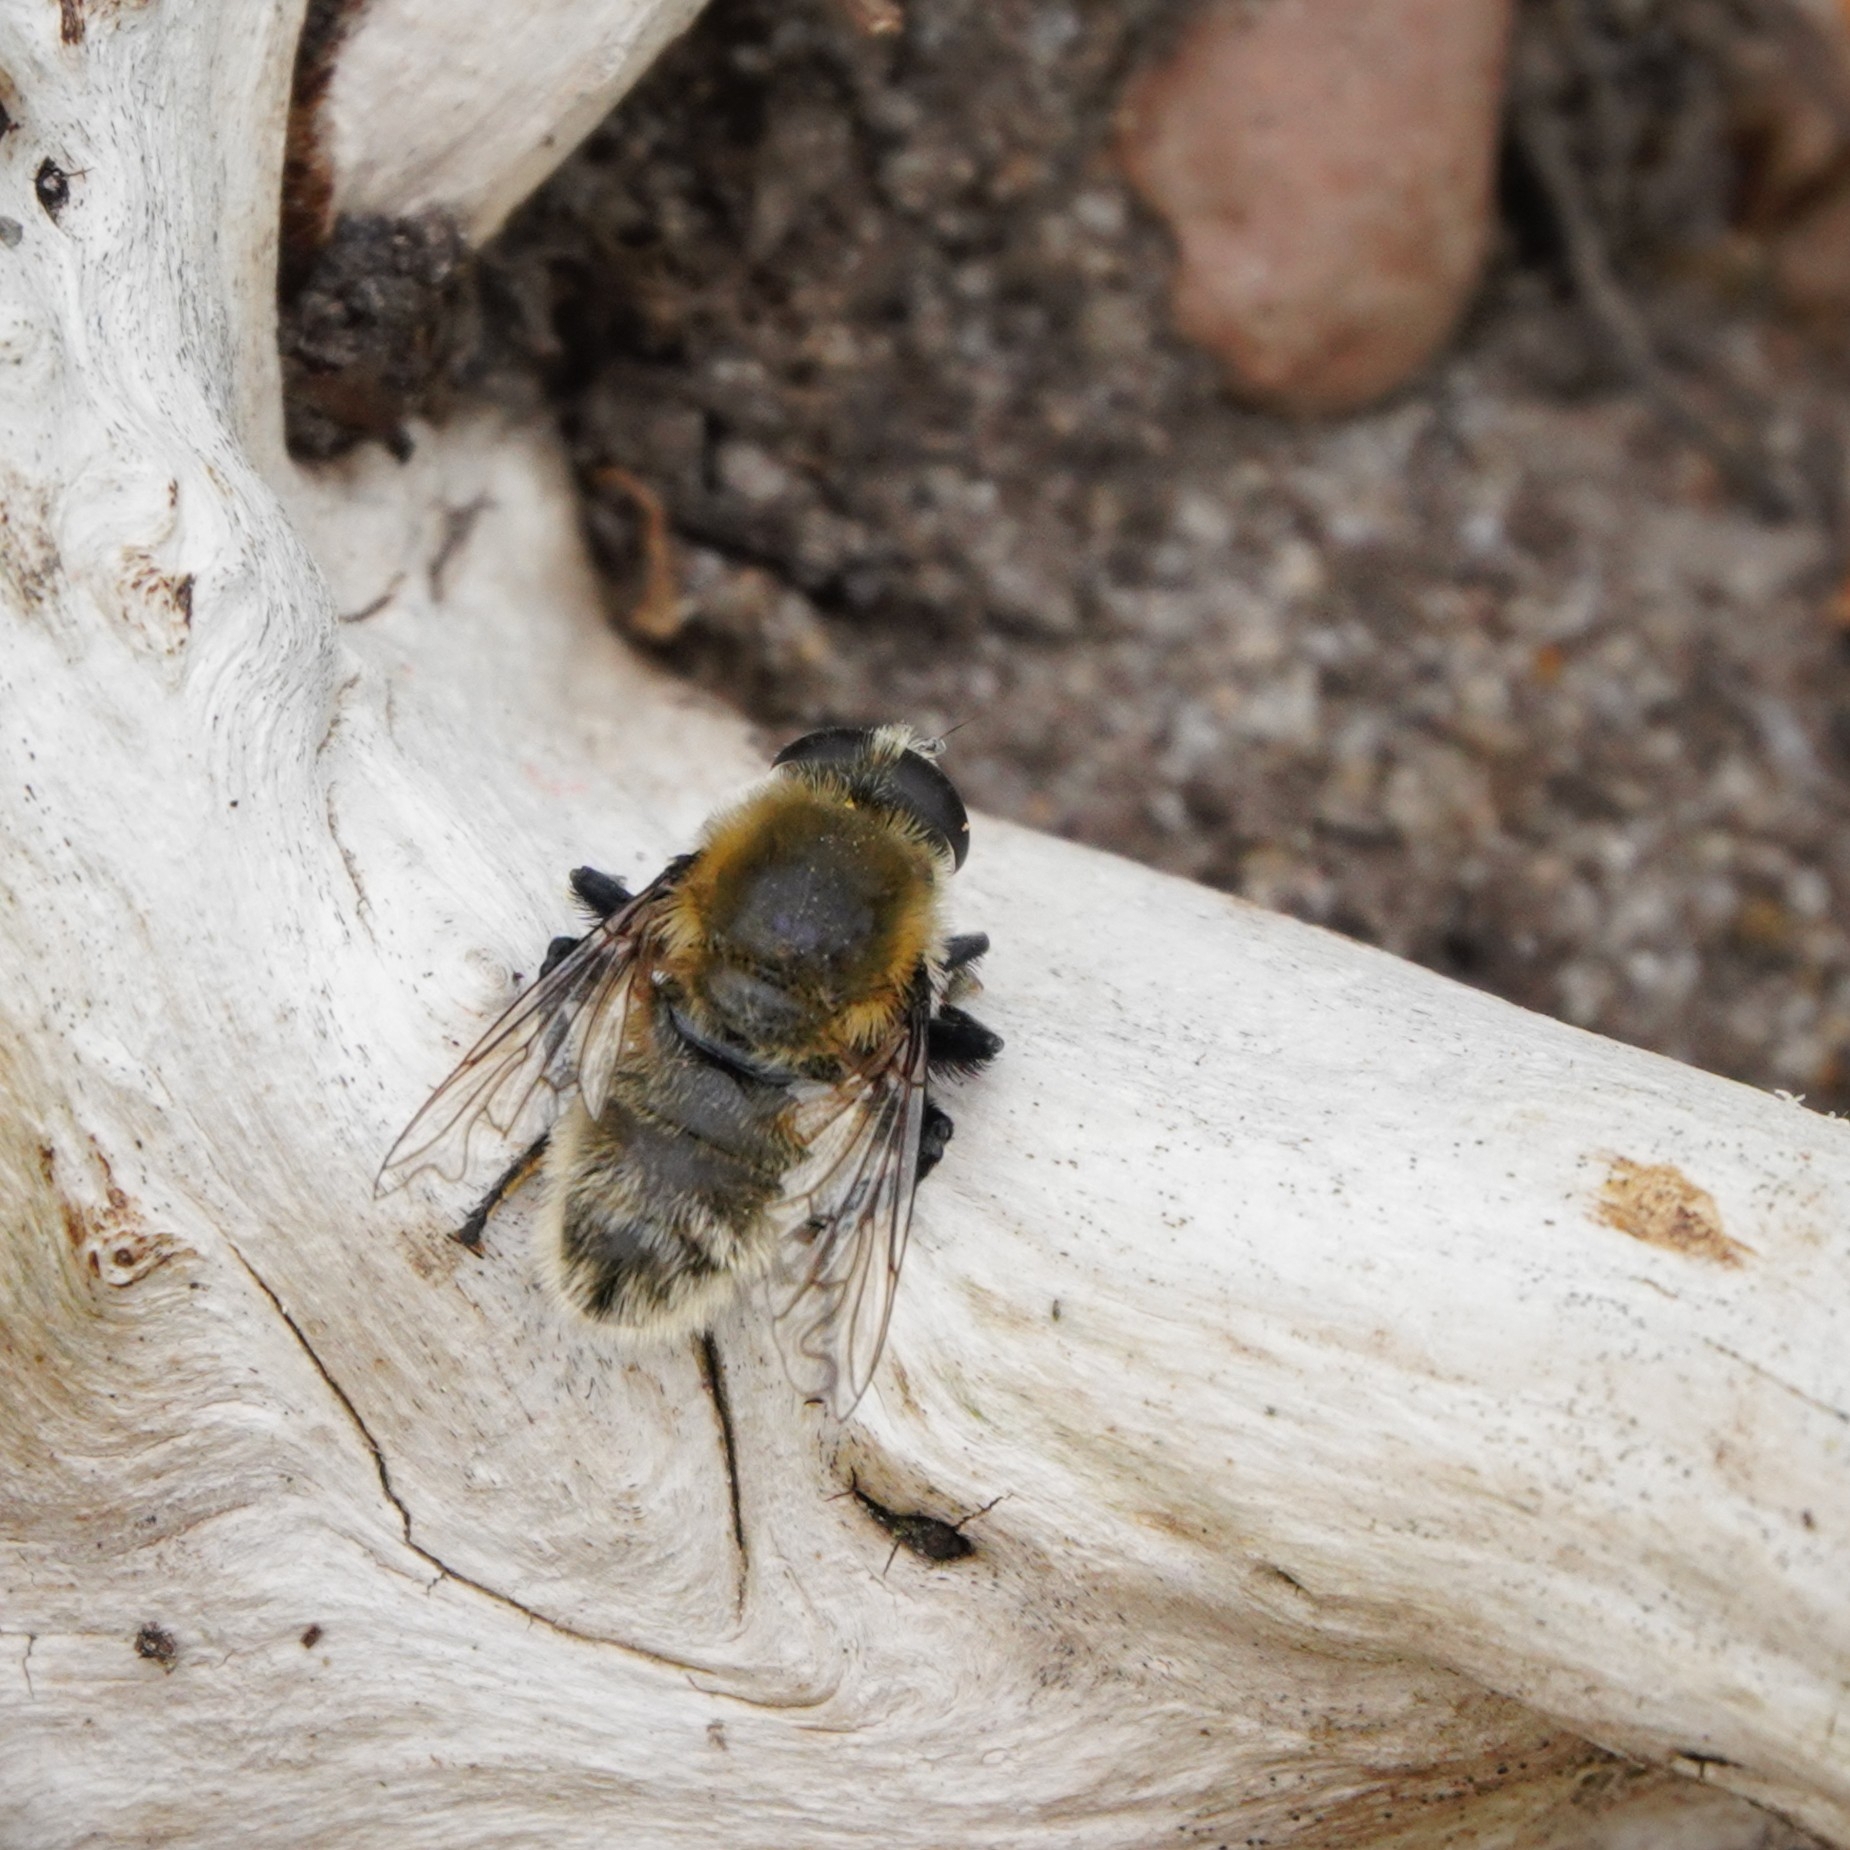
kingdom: Animalia
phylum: Arthropoda
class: Insecta
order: Diptera
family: Syrphidae
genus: Merodon
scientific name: Merodon equestris
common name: Greater bulb-fly
